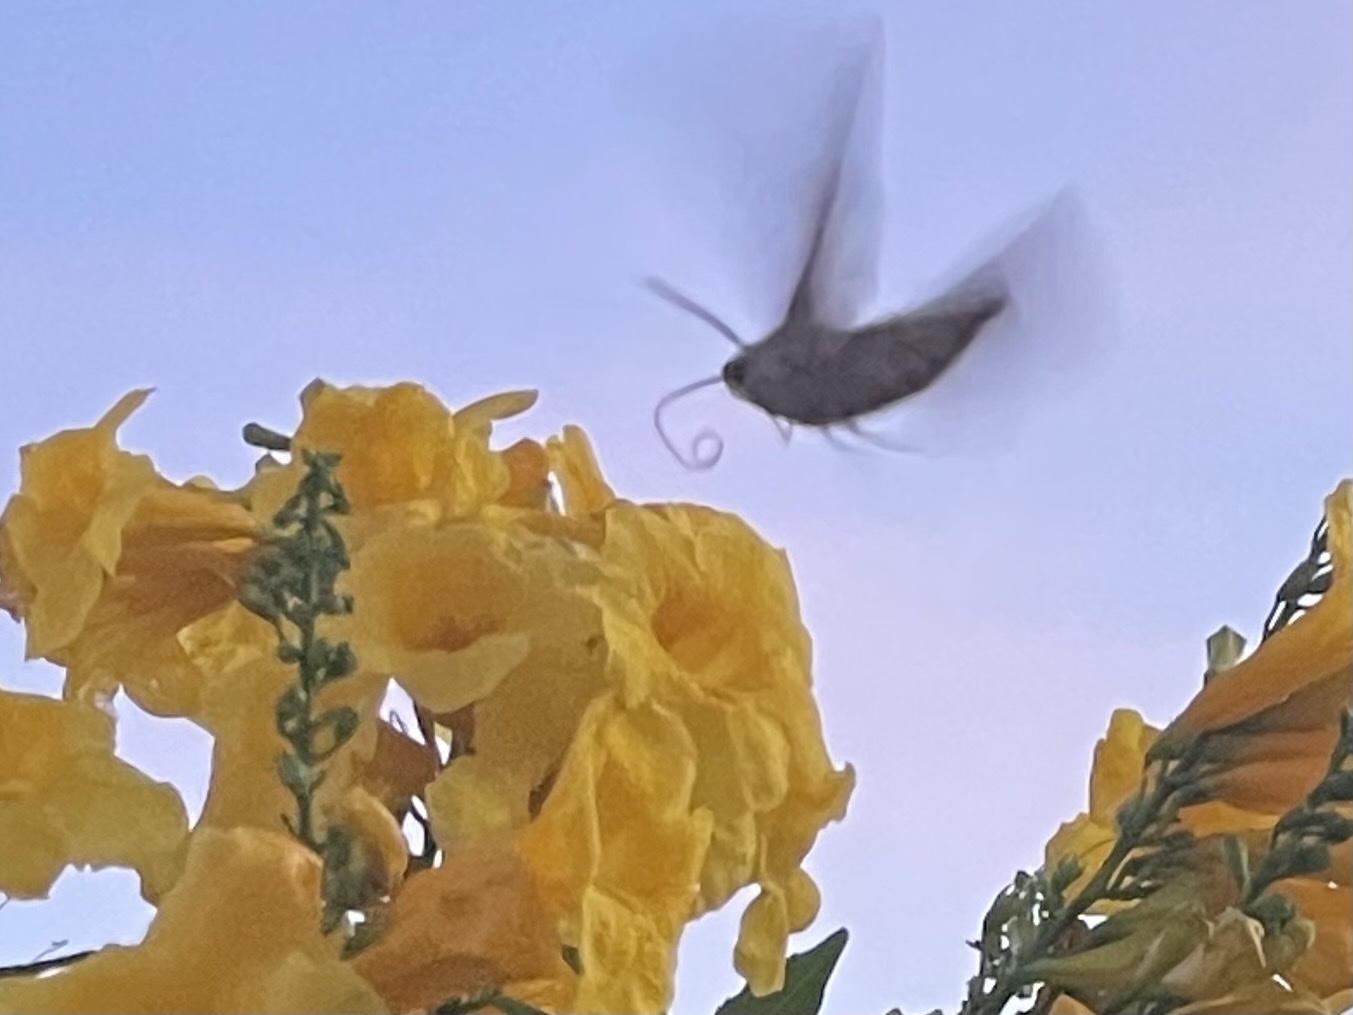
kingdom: Animalia
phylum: Arthropoda
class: Insecta
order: Lepidoptera
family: Sphingidae
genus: Hyles
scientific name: Hyles lineata
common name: White-lined sphinx
